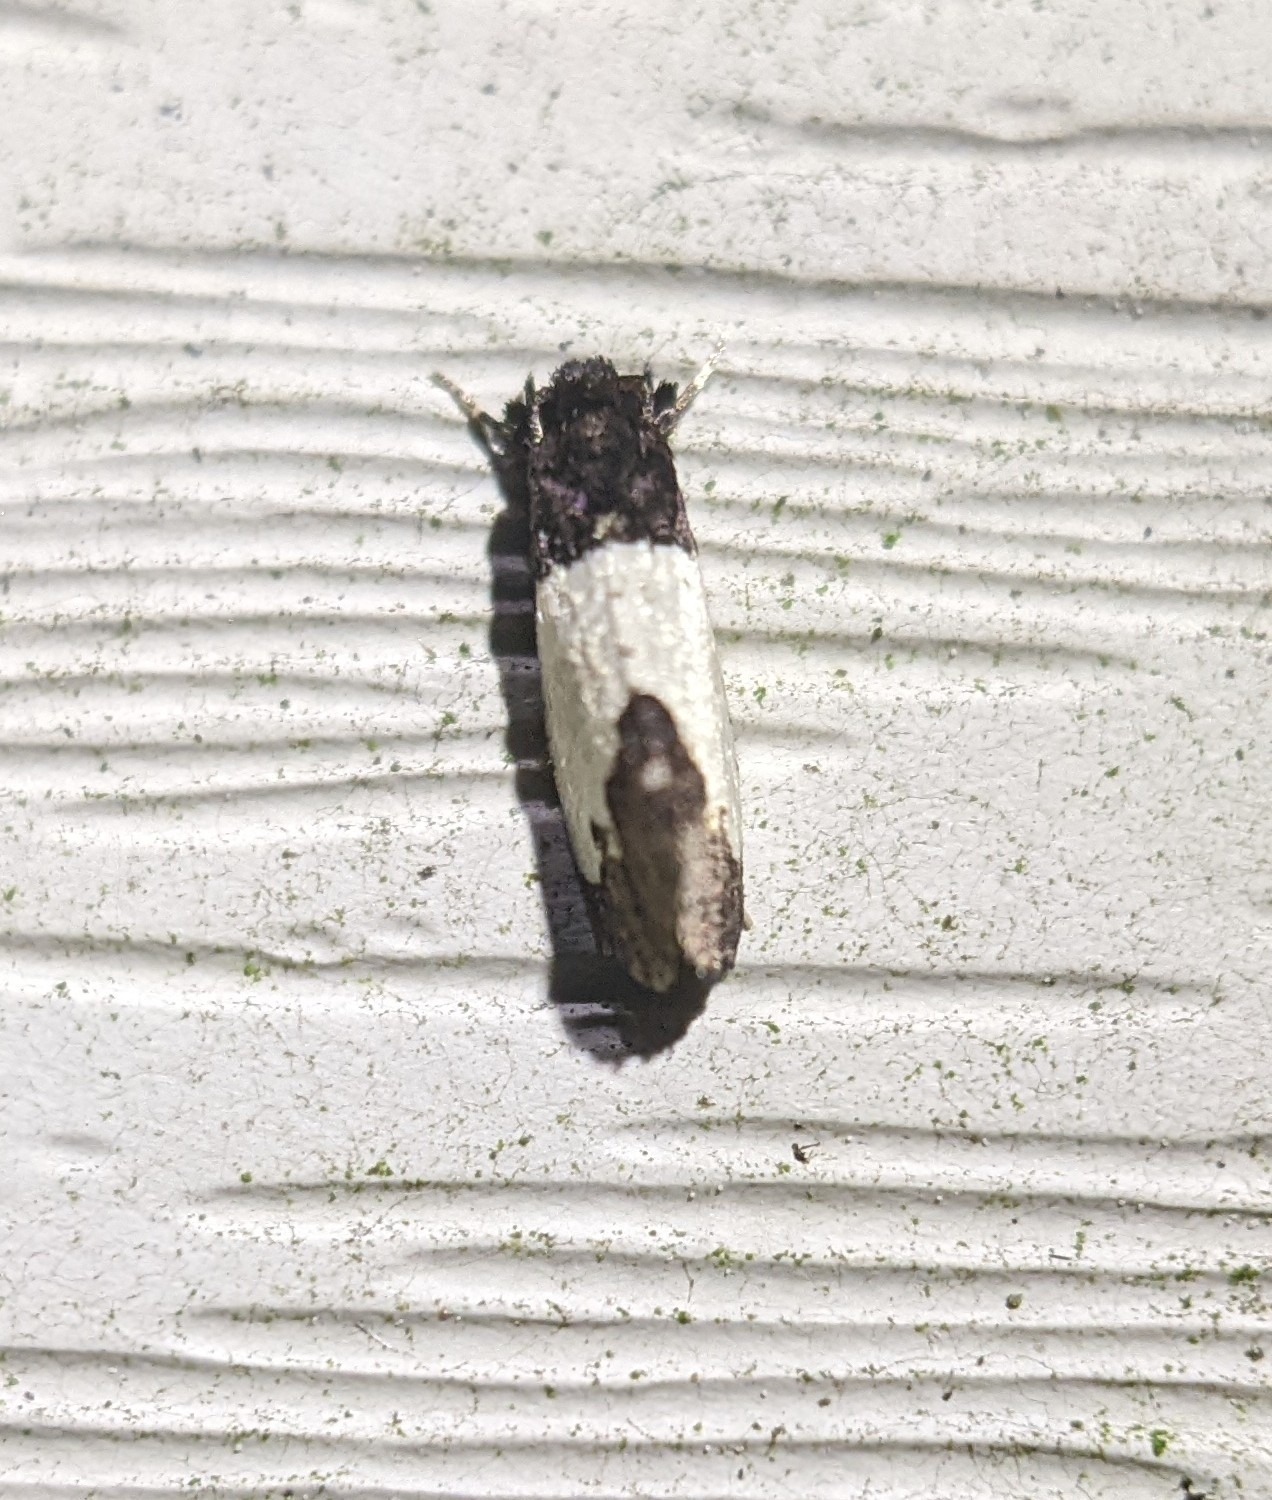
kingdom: Animalia
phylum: Arthropoda
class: Insecta
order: Lepidoptera
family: Psychidae
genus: Kearfottia
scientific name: Kearfottia albifasciella
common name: White-patched kearfottia
